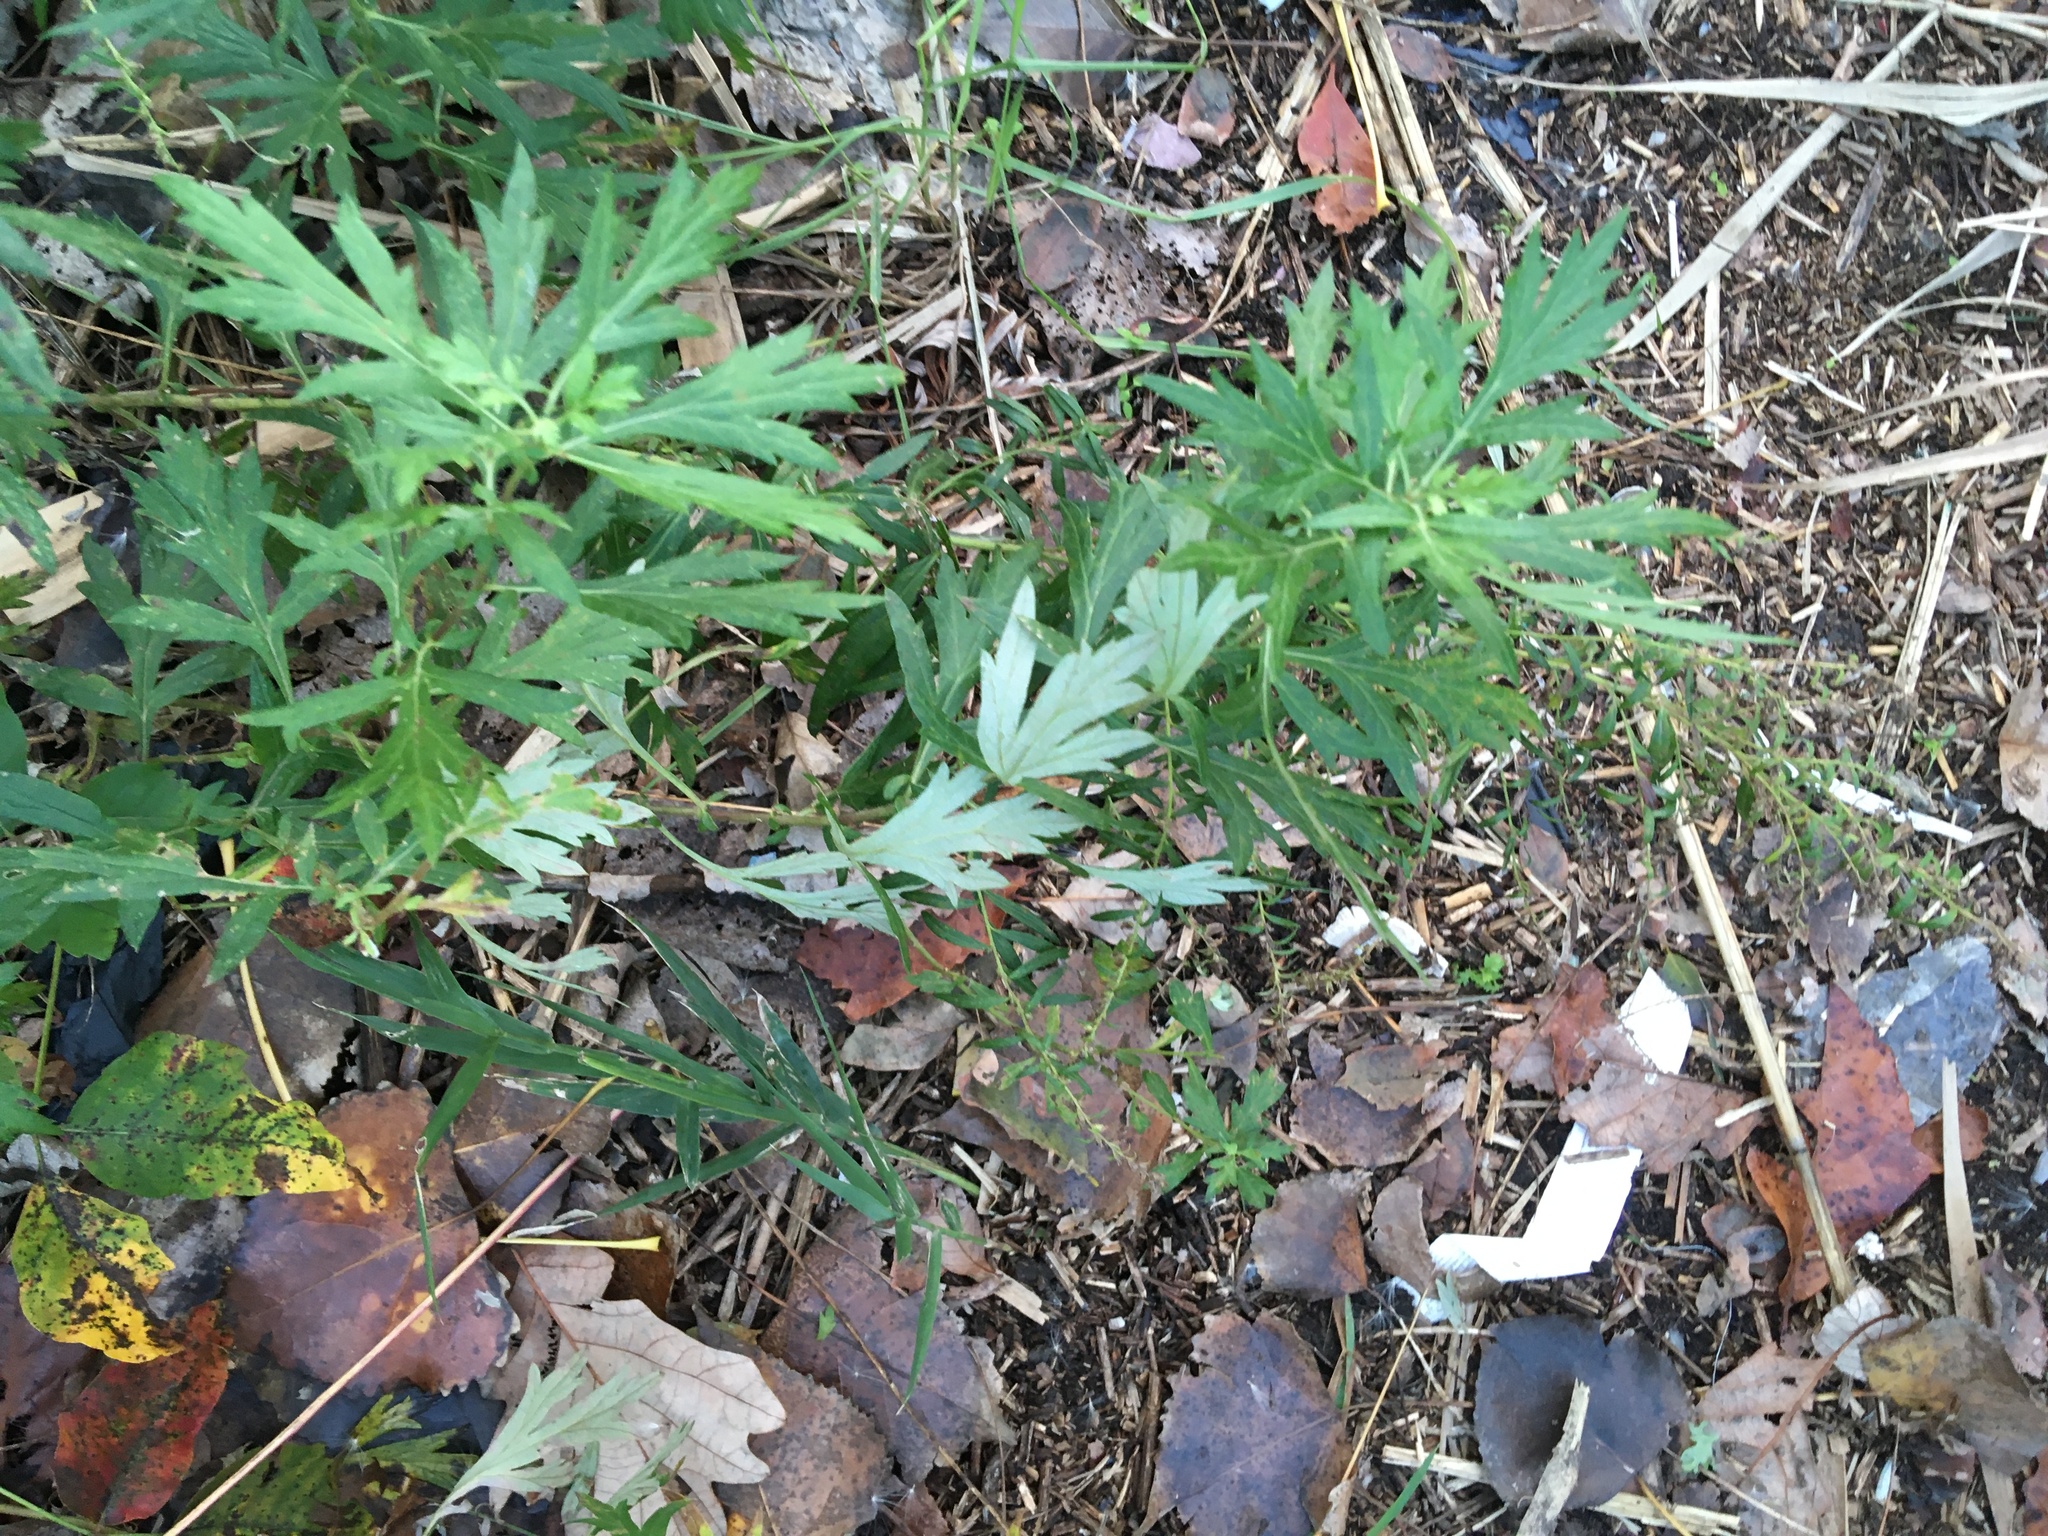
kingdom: Plantae
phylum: Tracheophyta
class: Magnoliopsida
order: Asterales
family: Asteraceae
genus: Artemisia
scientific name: Artemisia vulgaris
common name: Mugwort
